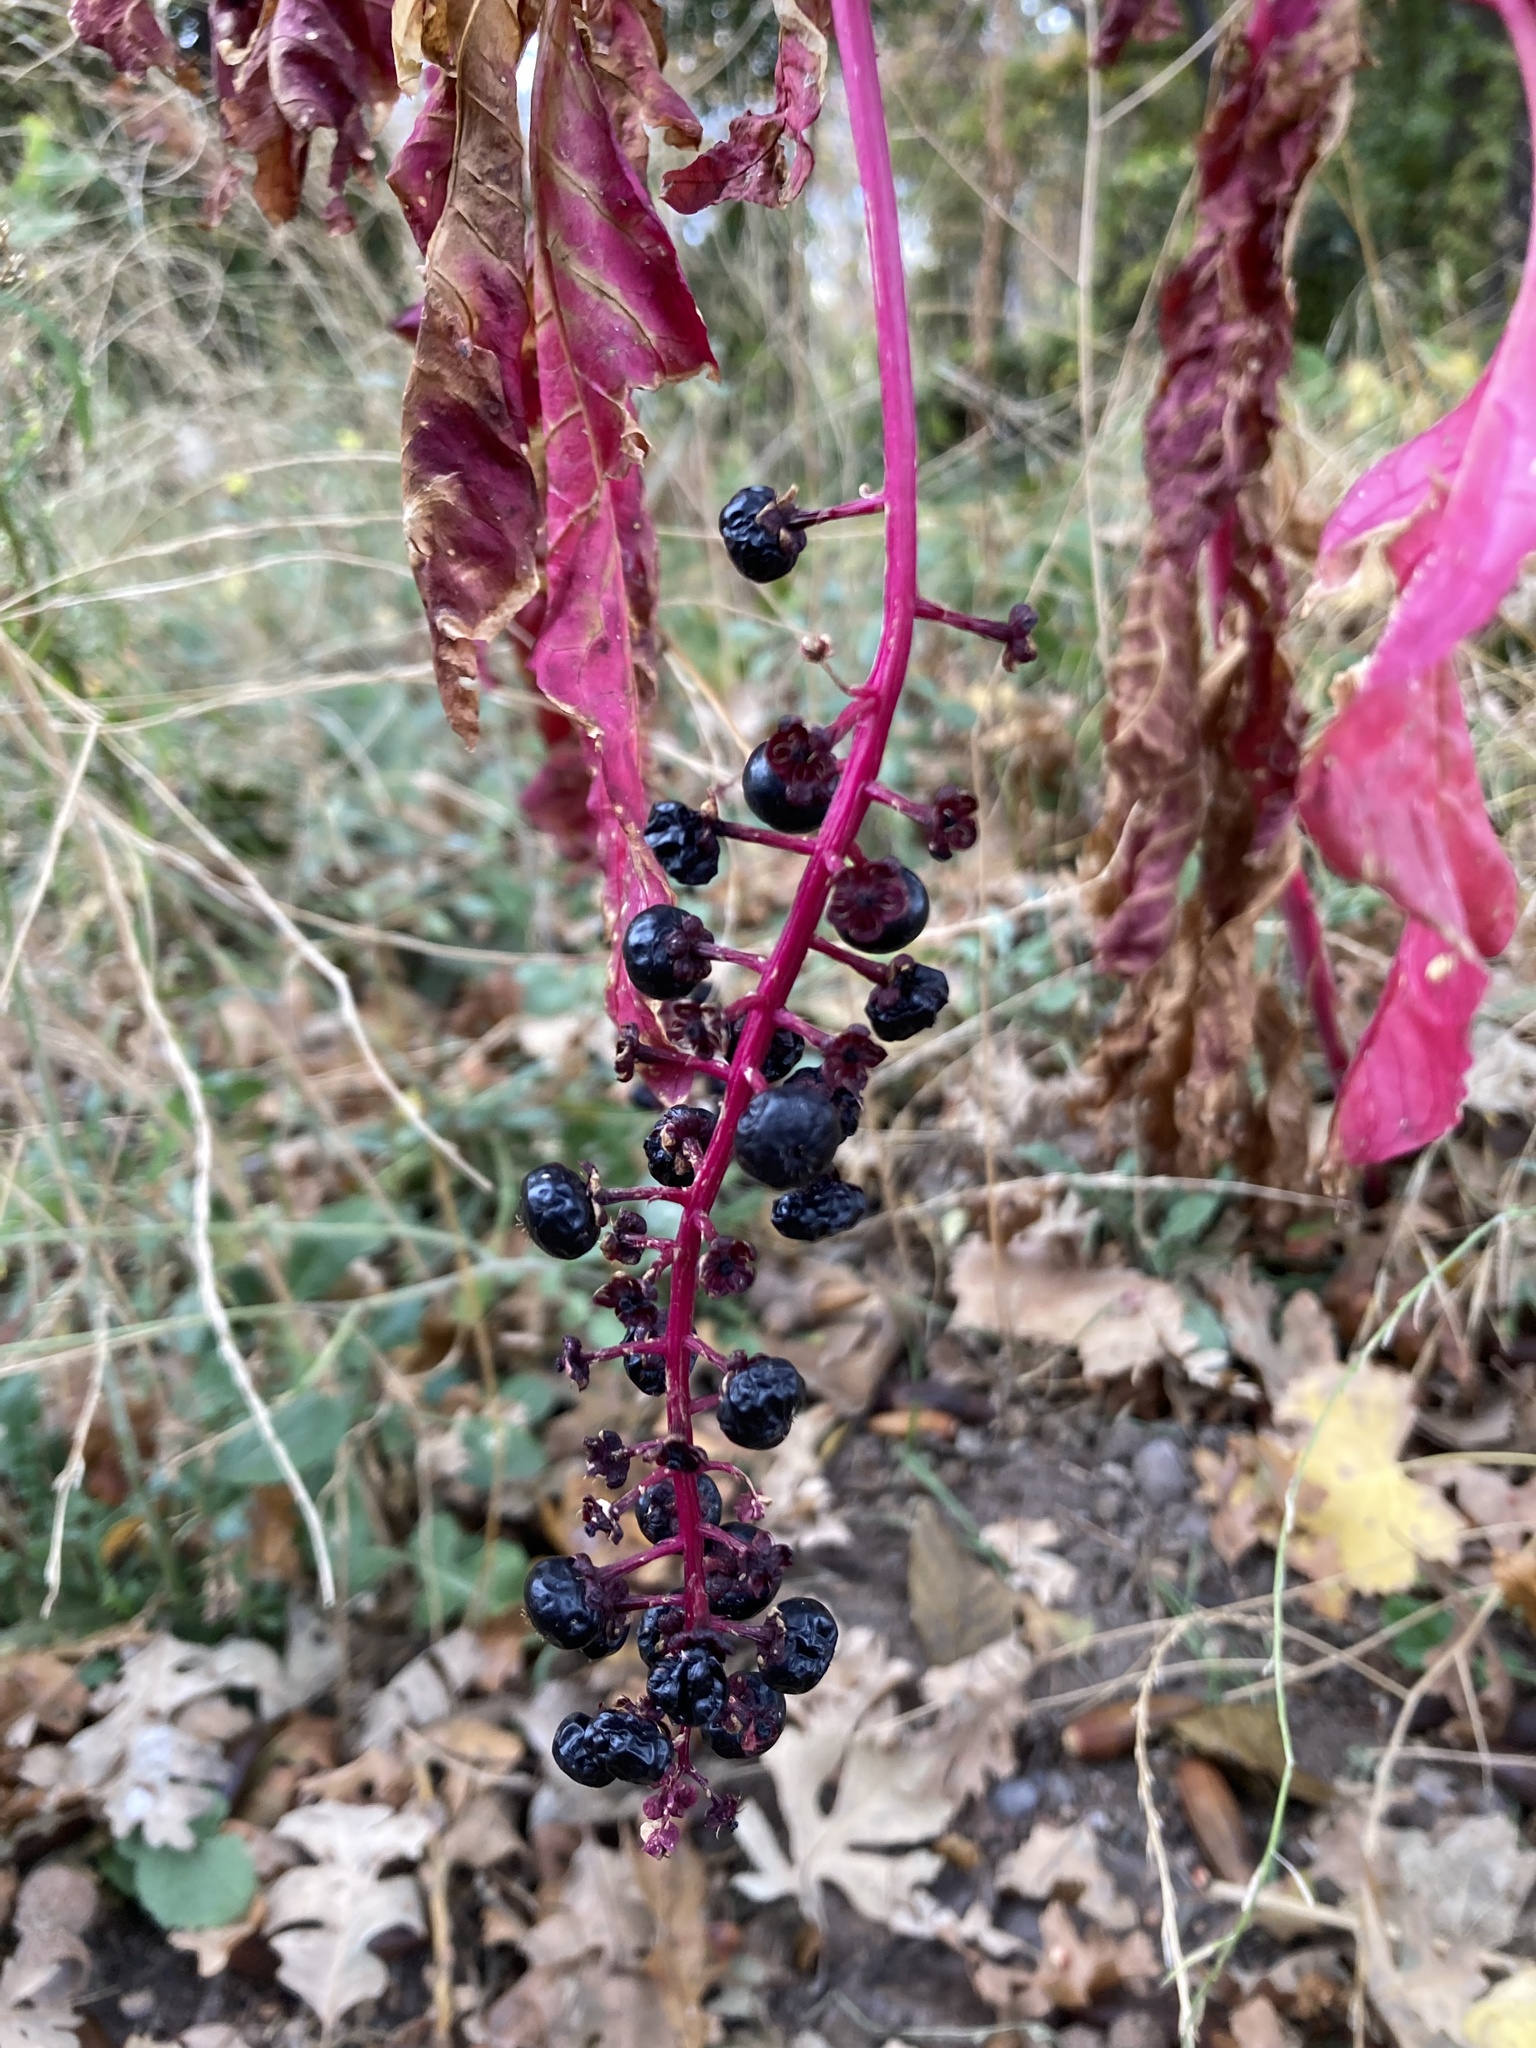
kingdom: Plantae
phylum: Tracheophyta
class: Magnoliopsida
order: Caryophyllales
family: Phytolaccaceae
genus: Phytolacca
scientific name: Phytolacca americana
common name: American pokeweed
